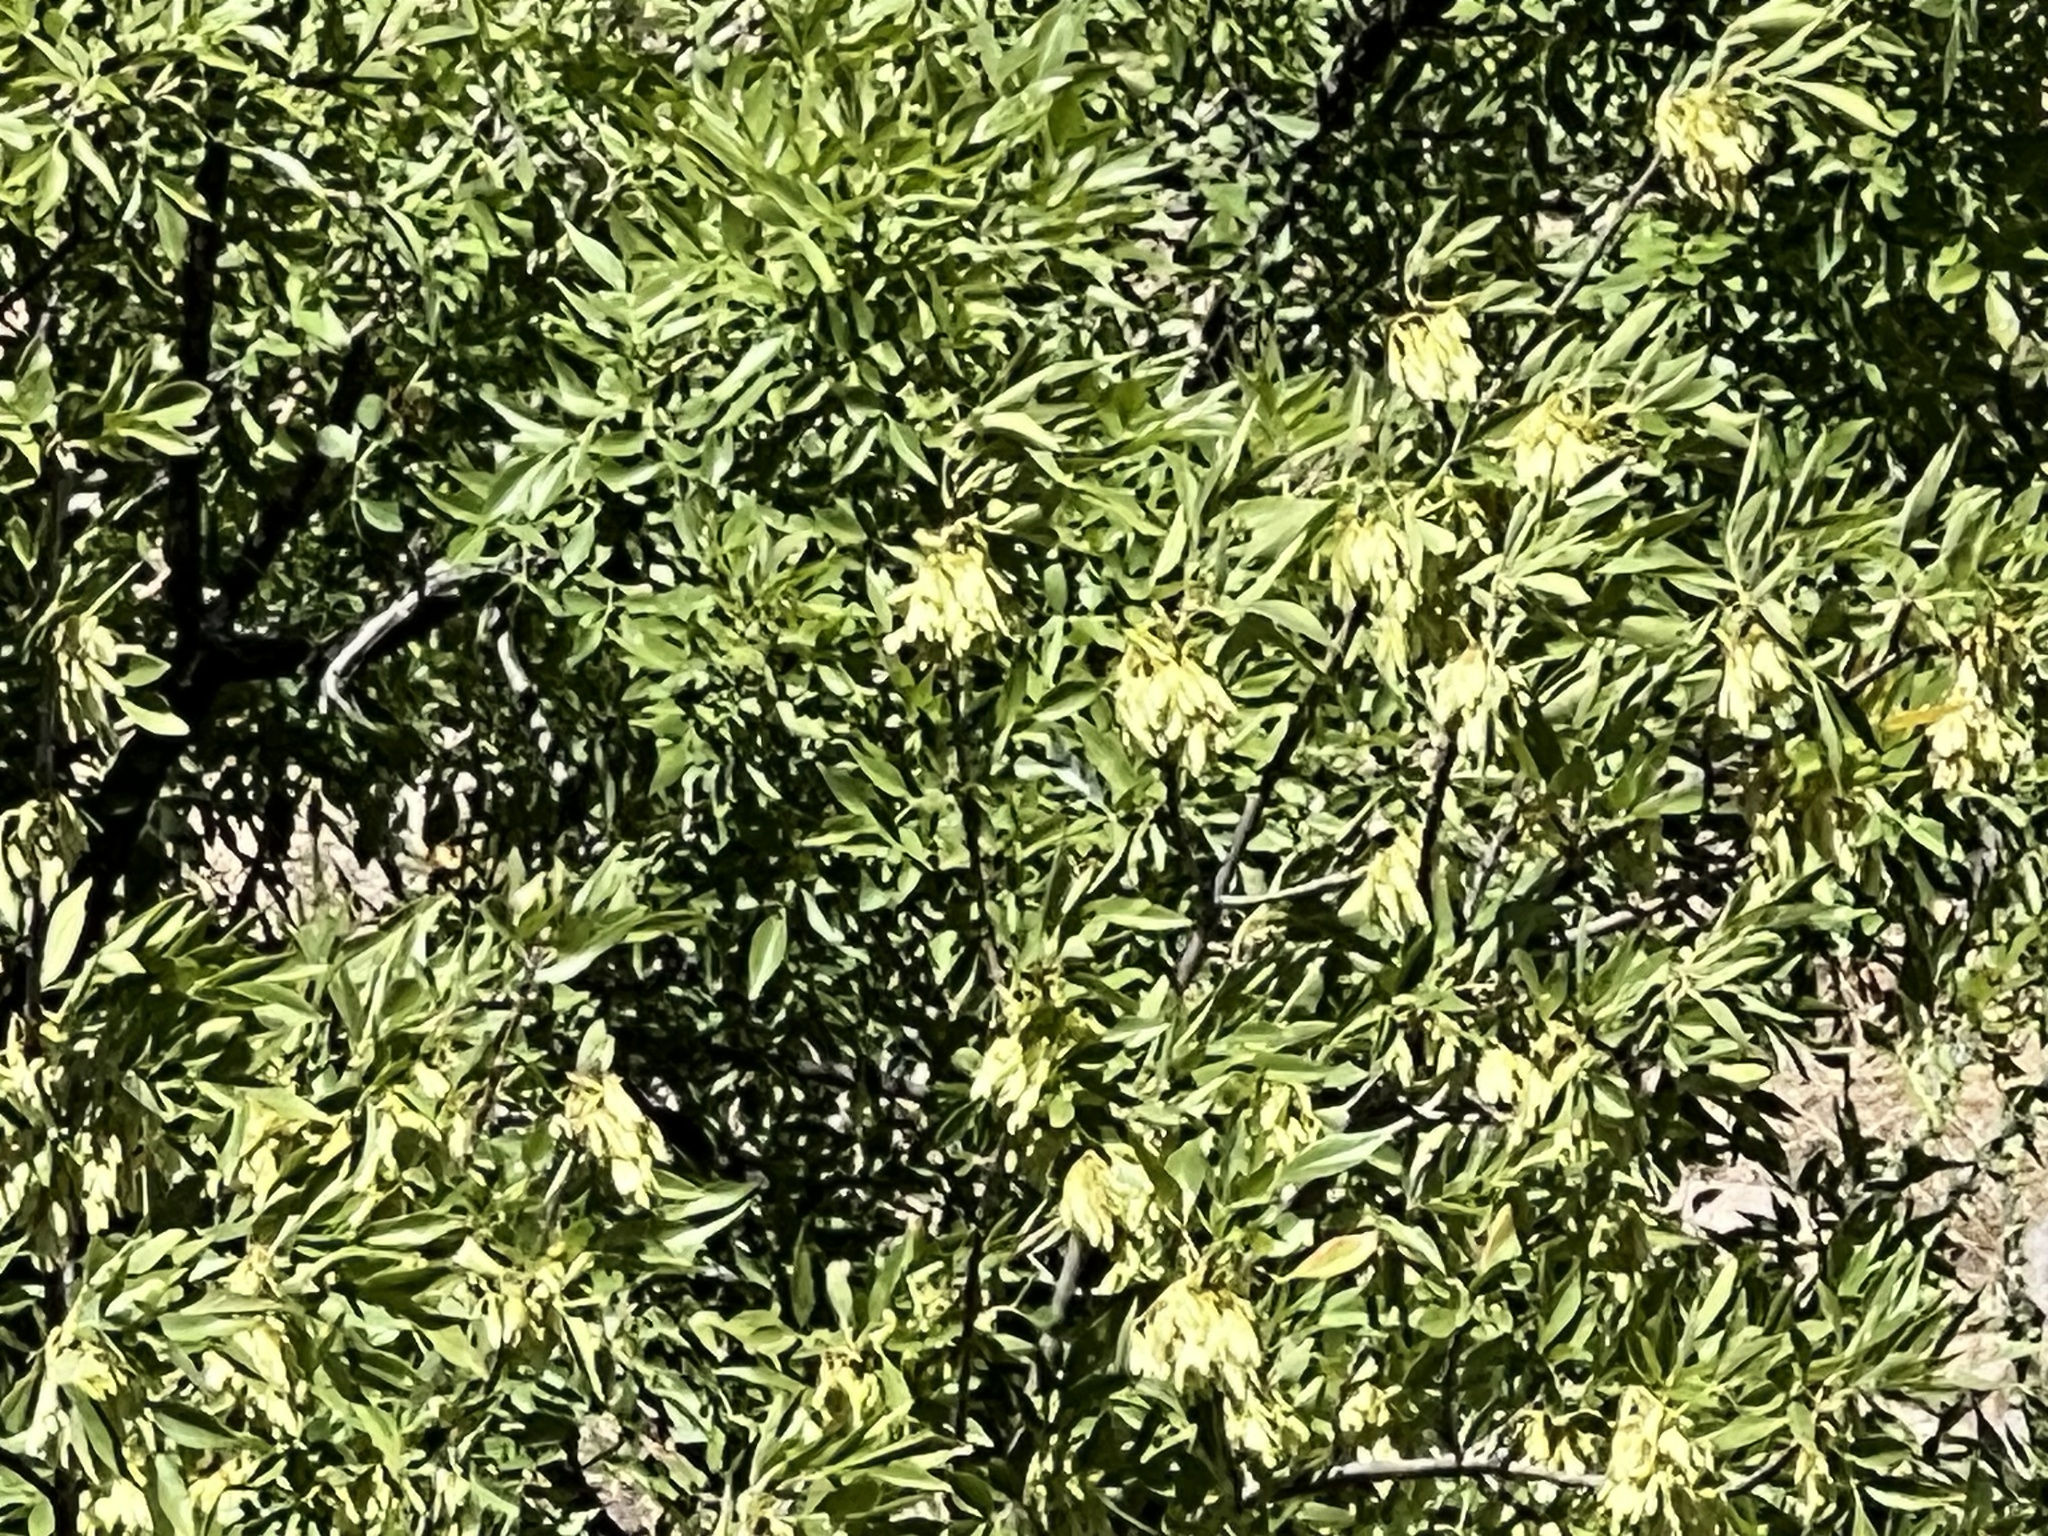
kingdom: Plantae
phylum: Tracheophyta
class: Magnoliopsida
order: Lamiales
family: Oleaceae
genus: Fraxinus
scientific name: Fraxinus velutina
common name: Arizon ash
